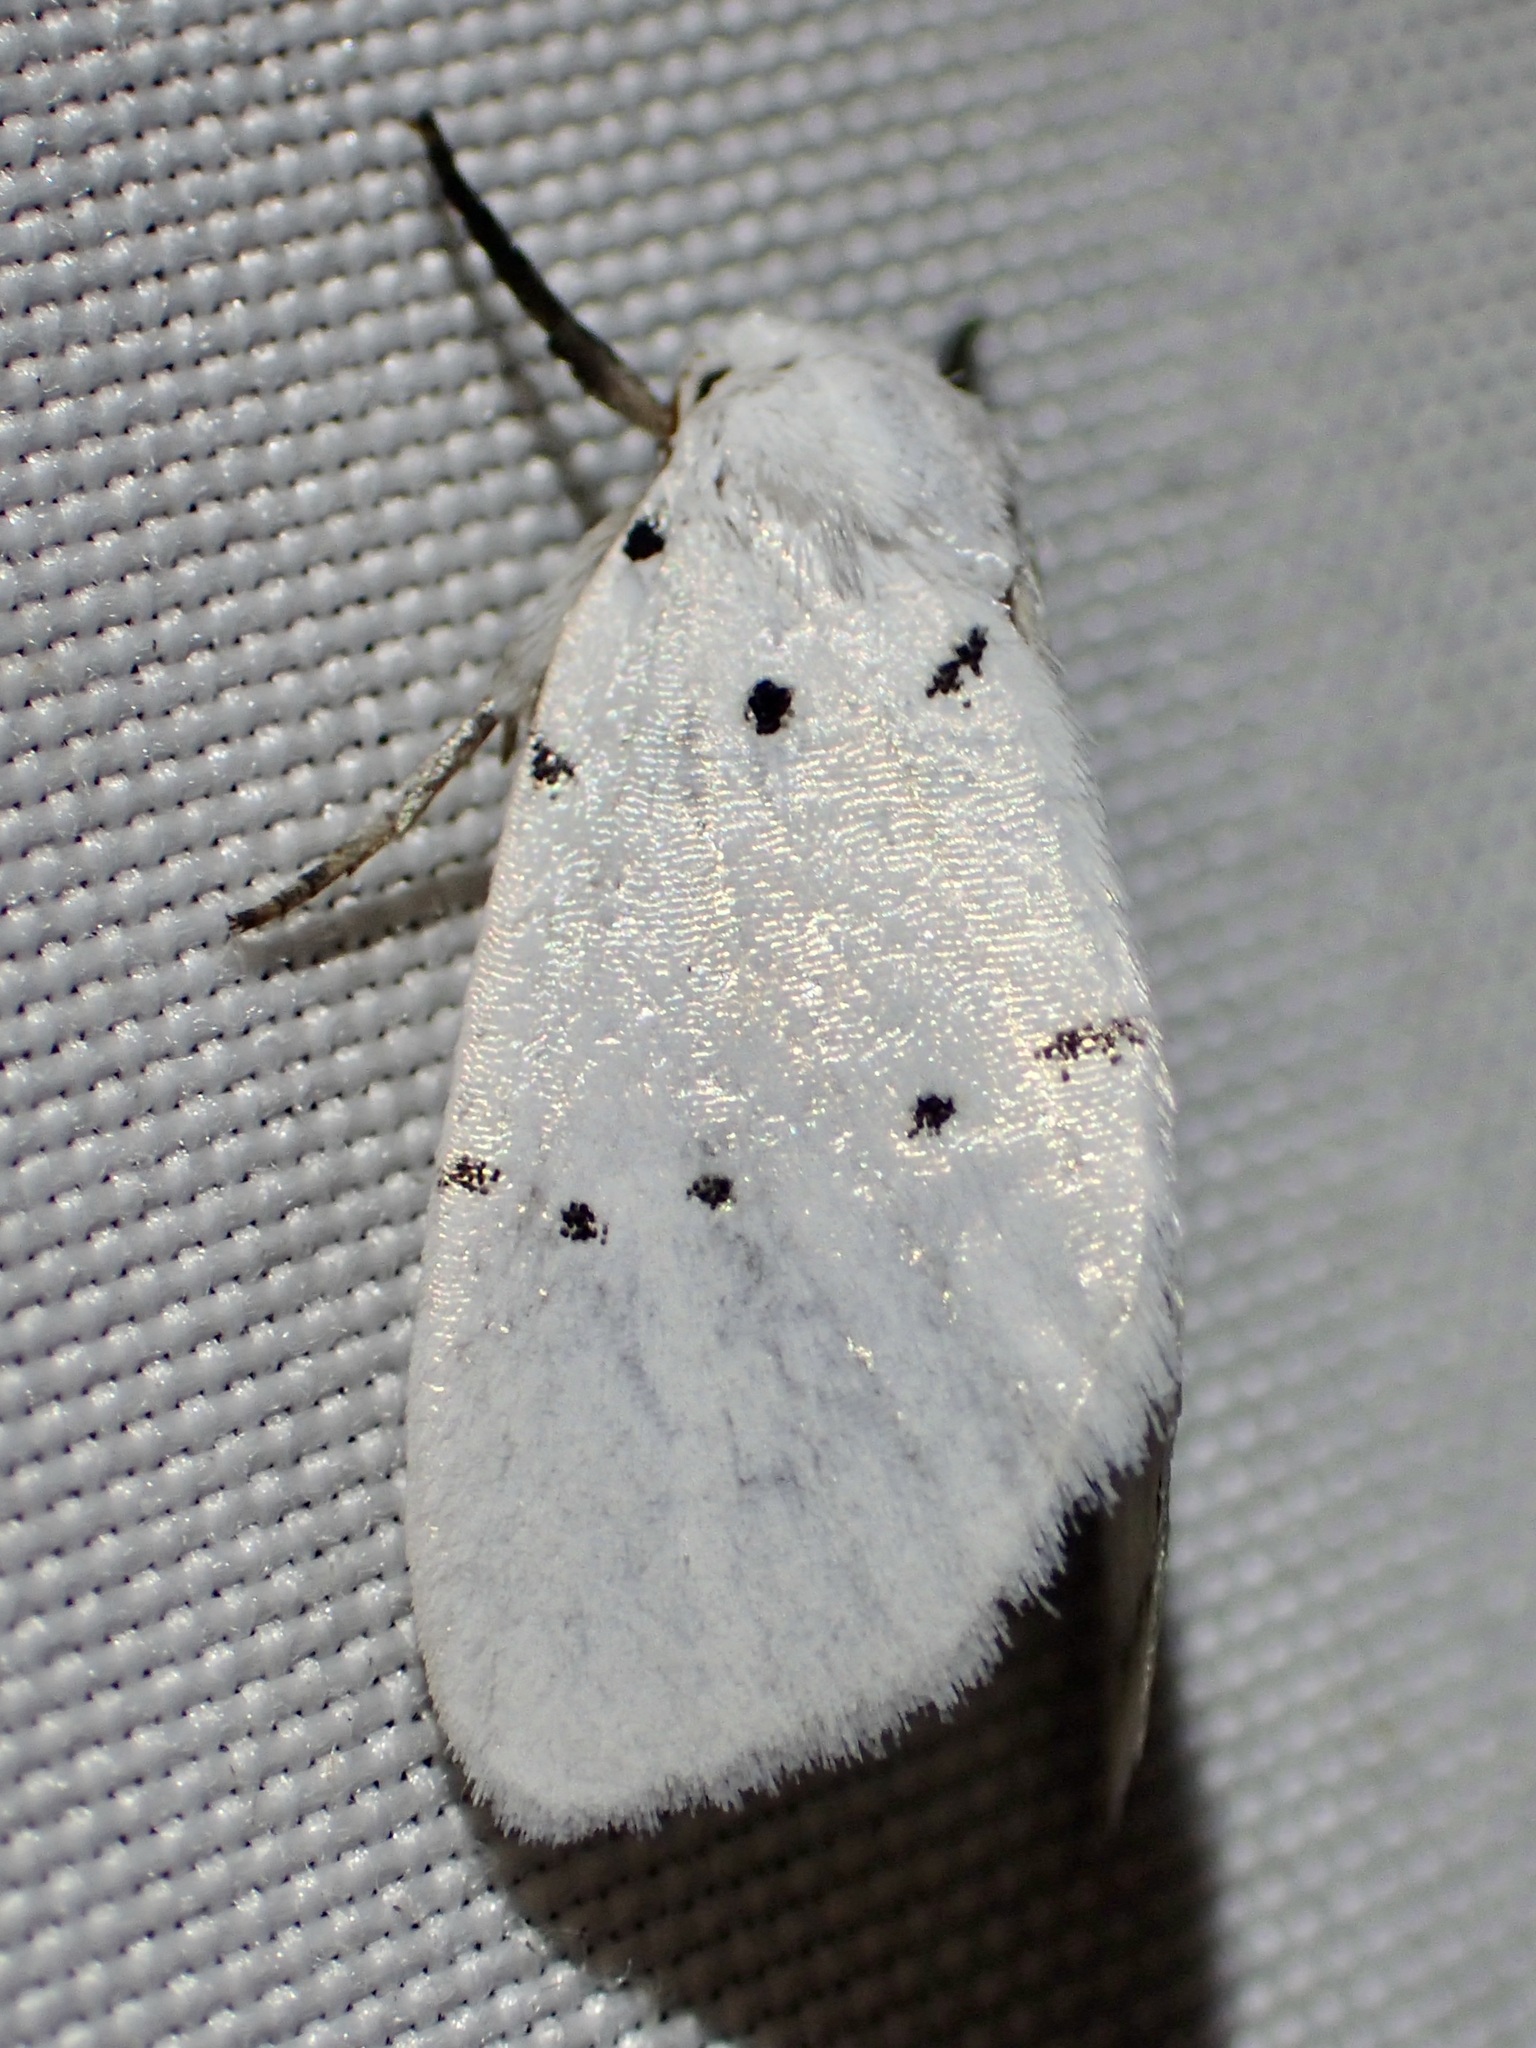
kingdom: Animalia
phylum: Arthropoda
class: Insecta
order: Lepidoptera
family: Noctuidae
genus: Homolagoa
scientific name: Homolagoa grotelliformis
